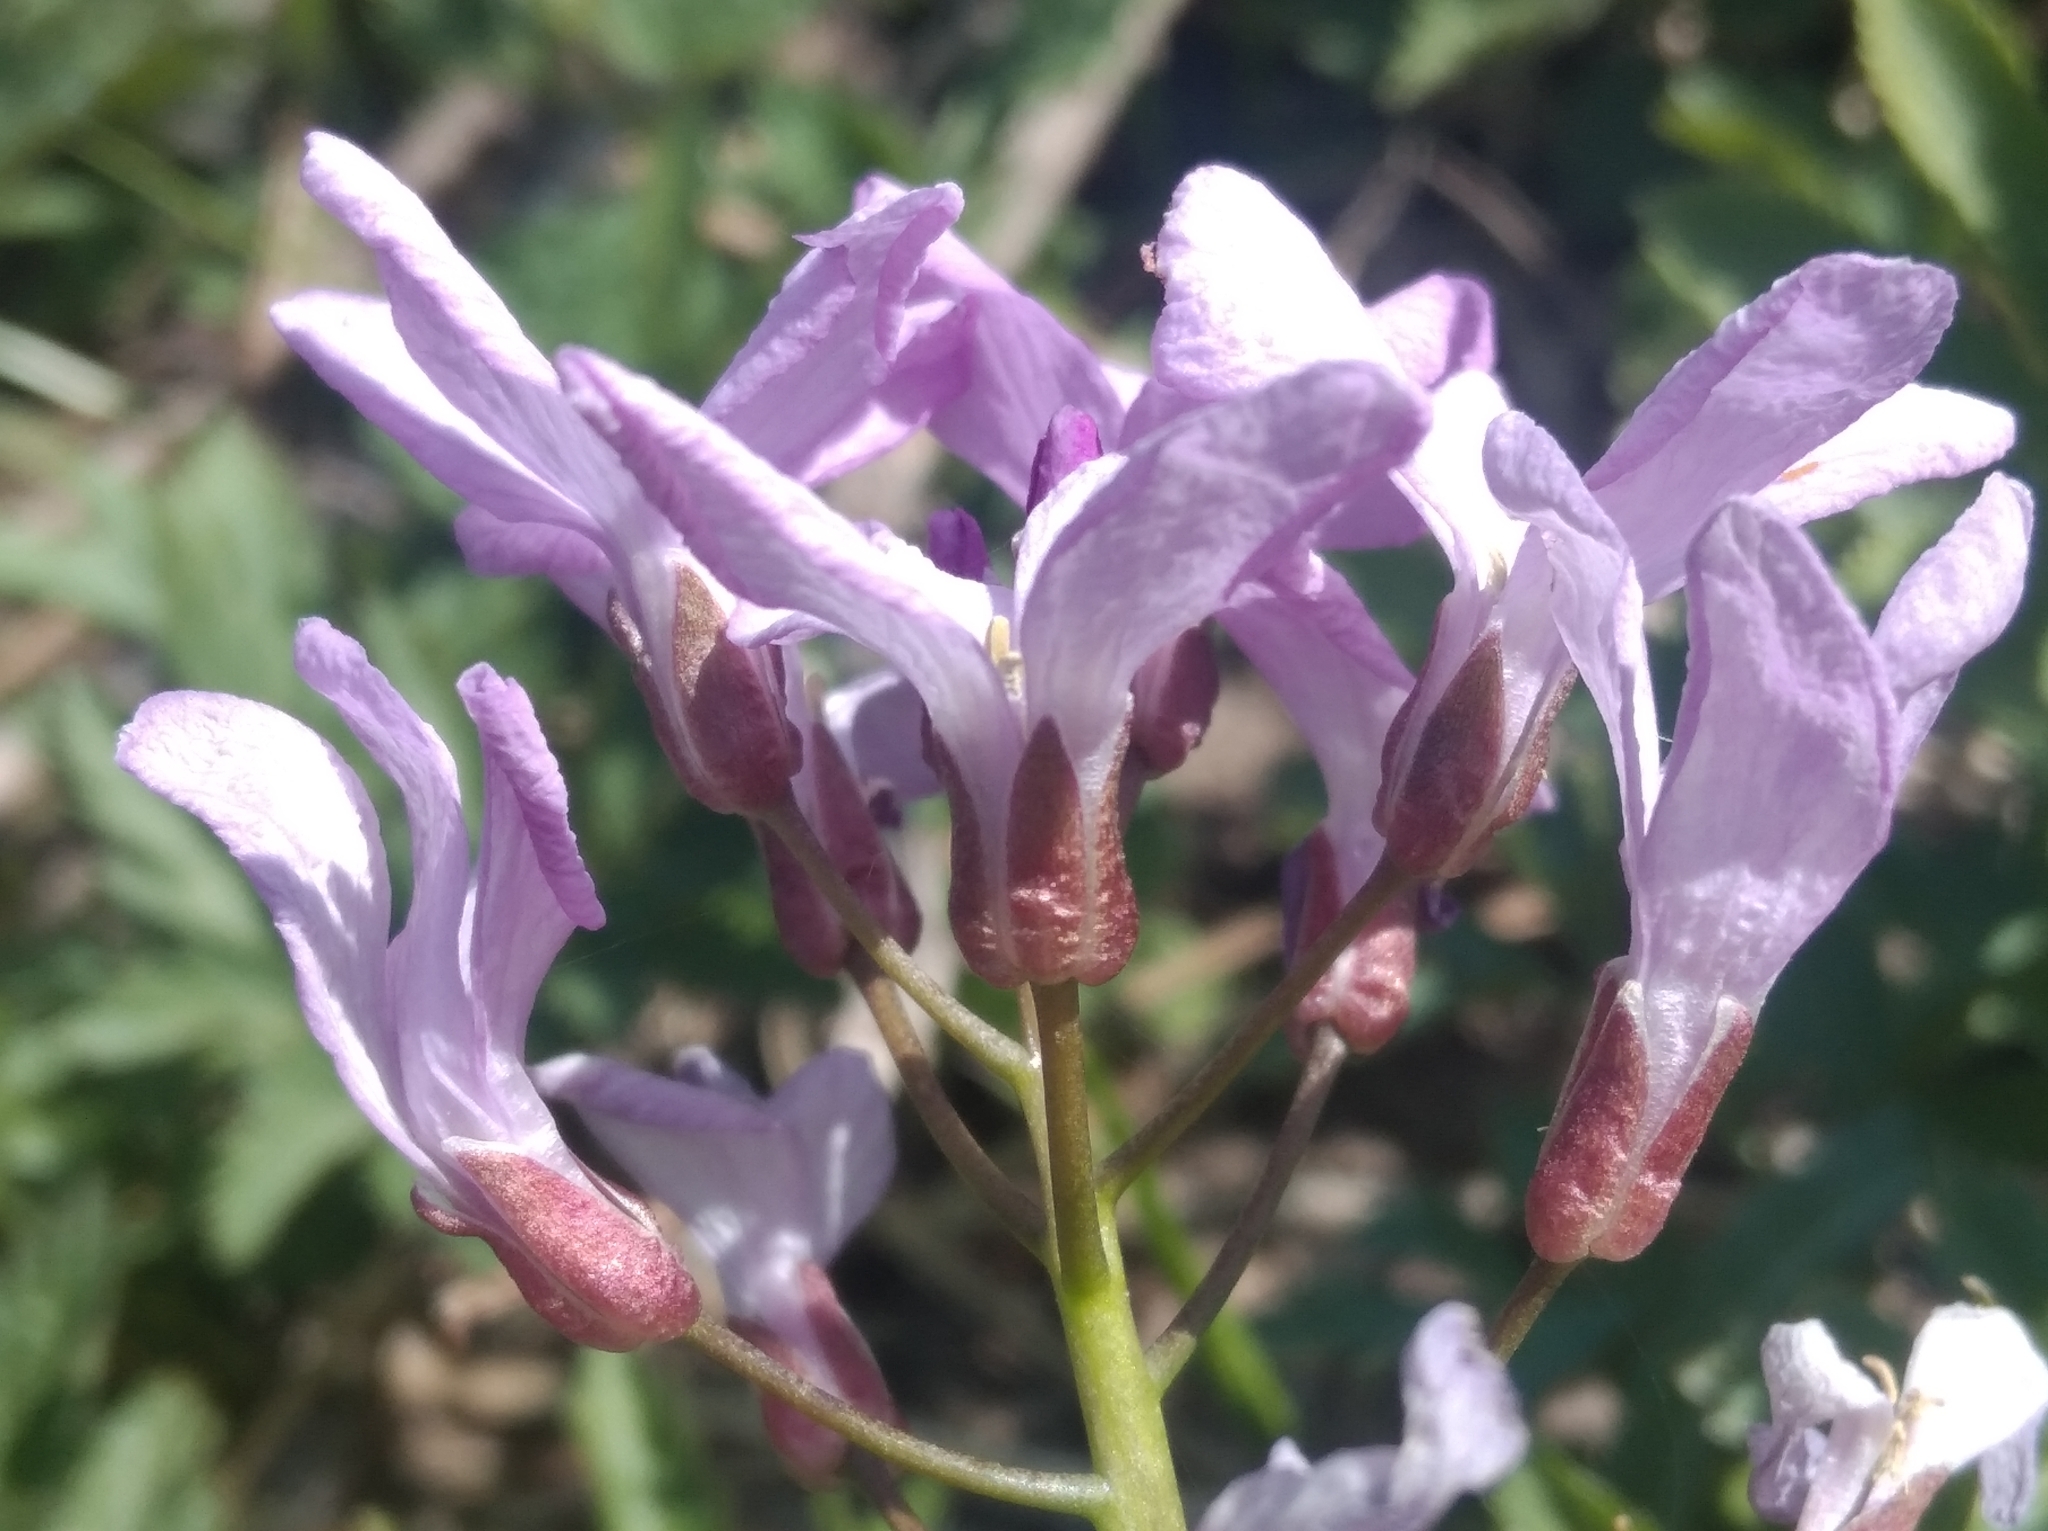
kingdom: Plantae
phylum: Tracheophyta
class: Magnoliopsida
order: Brassicales
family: Brassicaceae
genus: Cardamine
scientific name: Cardamine quinquefolia
